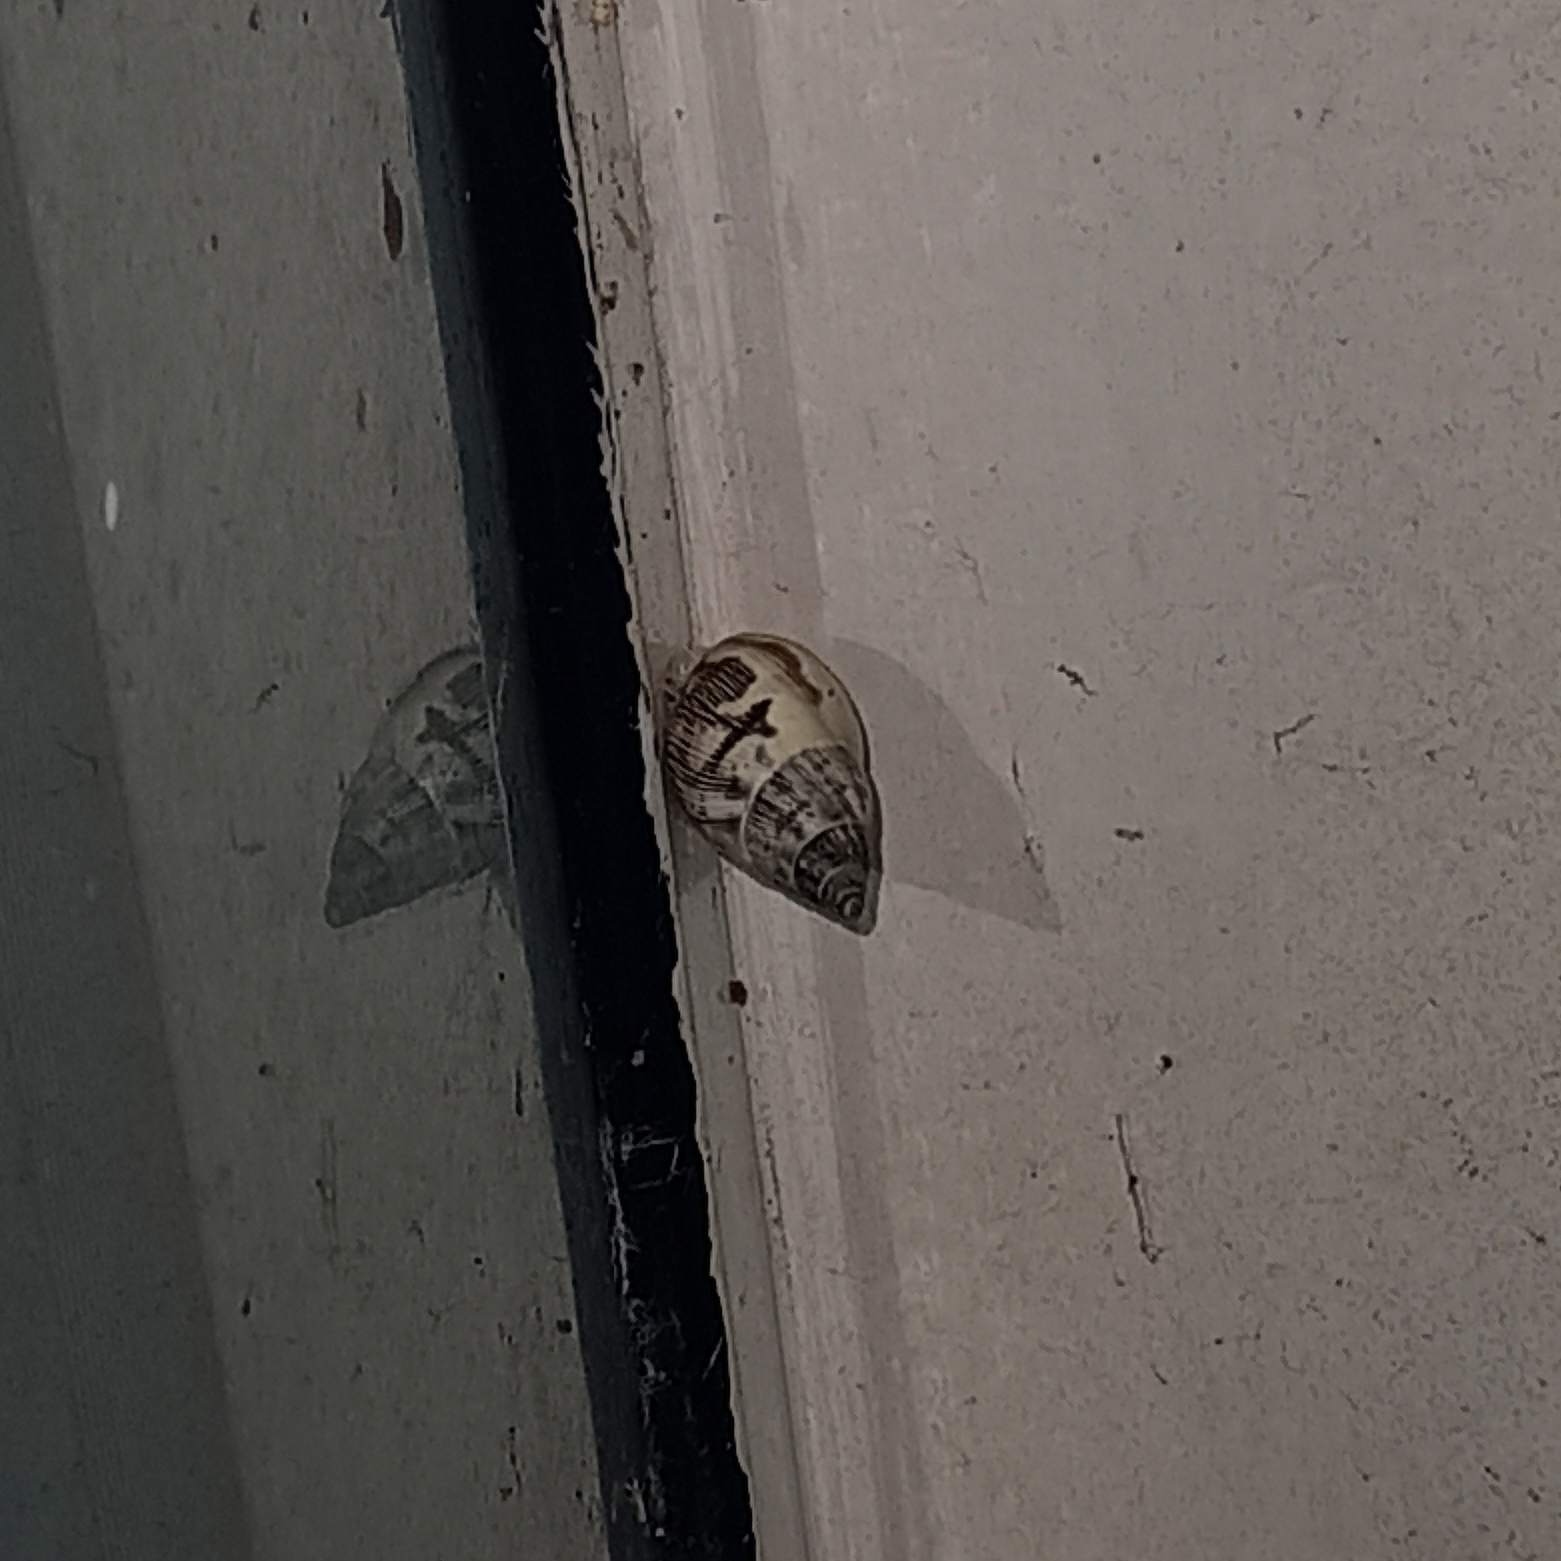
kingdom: Animalia
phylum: Mollusca
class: Gastropoda
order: Stylommatophora
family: Bulimulidae
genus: Drymaeus
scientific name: Drymaeus papyraceus
